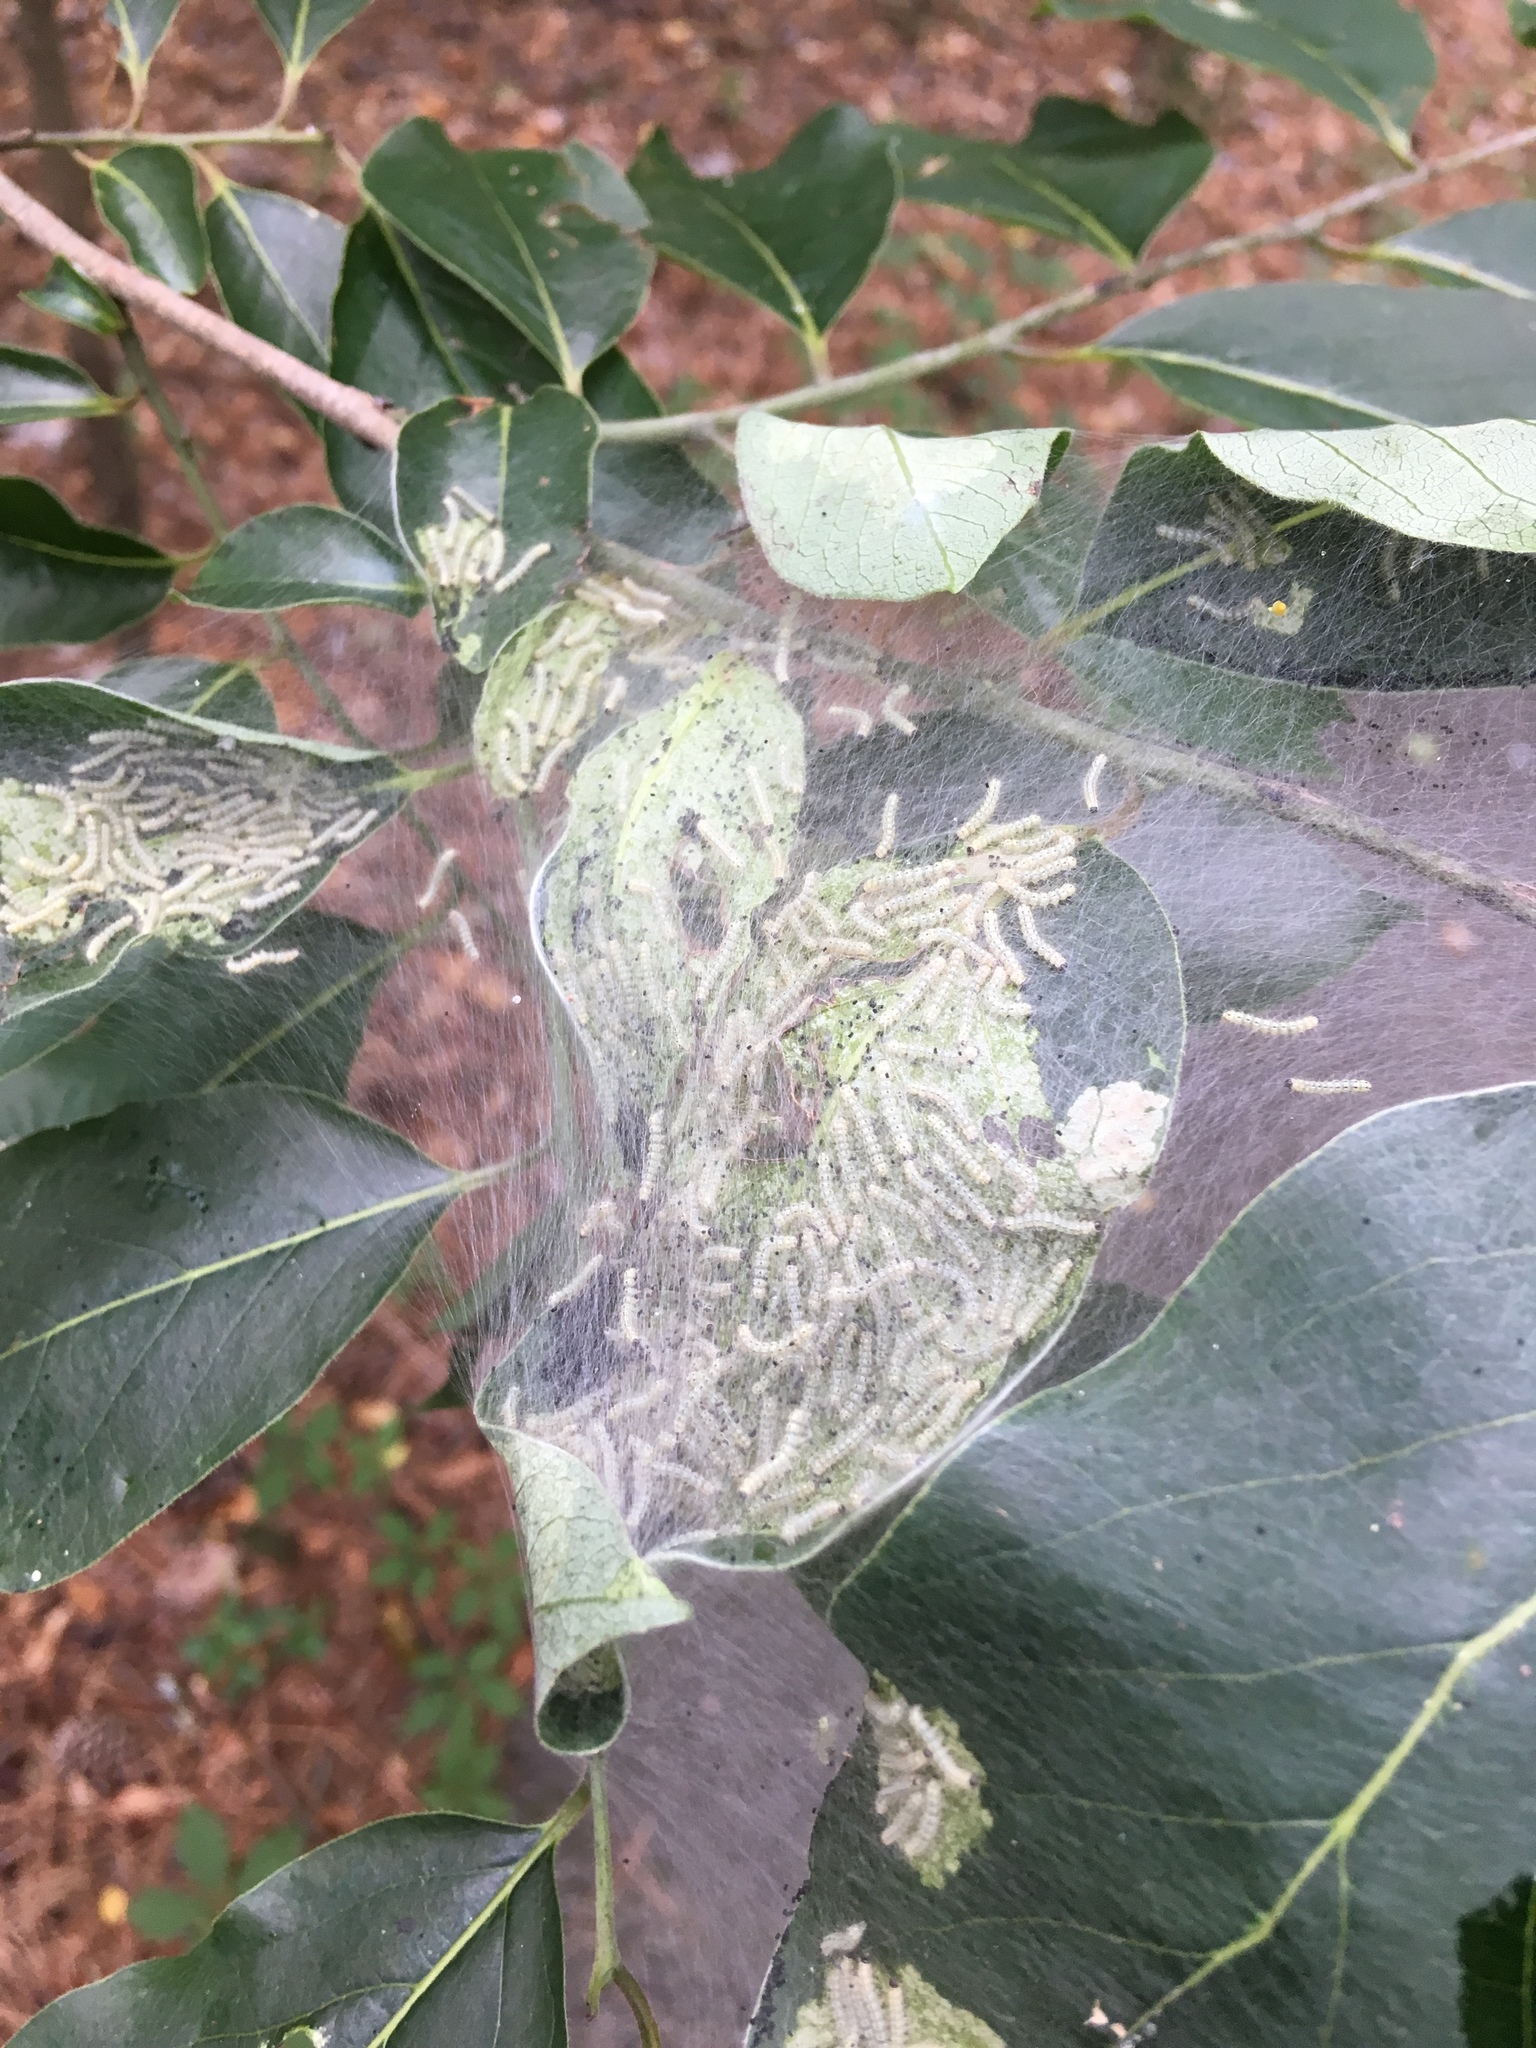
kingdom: Animalia
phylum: Arthropoda
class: Insecta
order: Lepidoptera
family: Erebidae
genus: Hyphantria
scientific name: Hyphantria cunea
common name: American white moth
